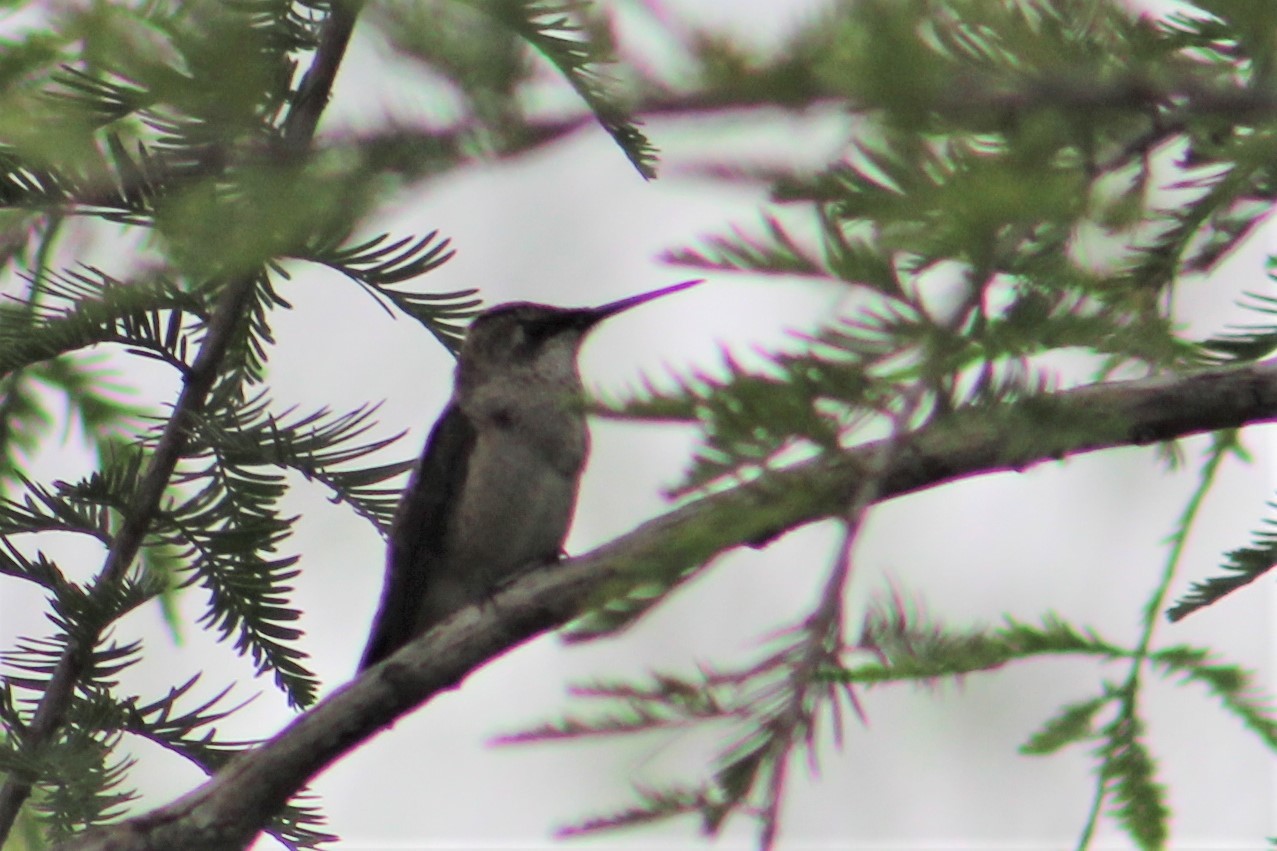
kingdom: Animalia
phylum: Chordata
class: Aves
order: Apodiformes
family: Trochilidae
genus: Archilochus
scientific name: Archilochus colubris
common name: Ruby-throated hummingbird
